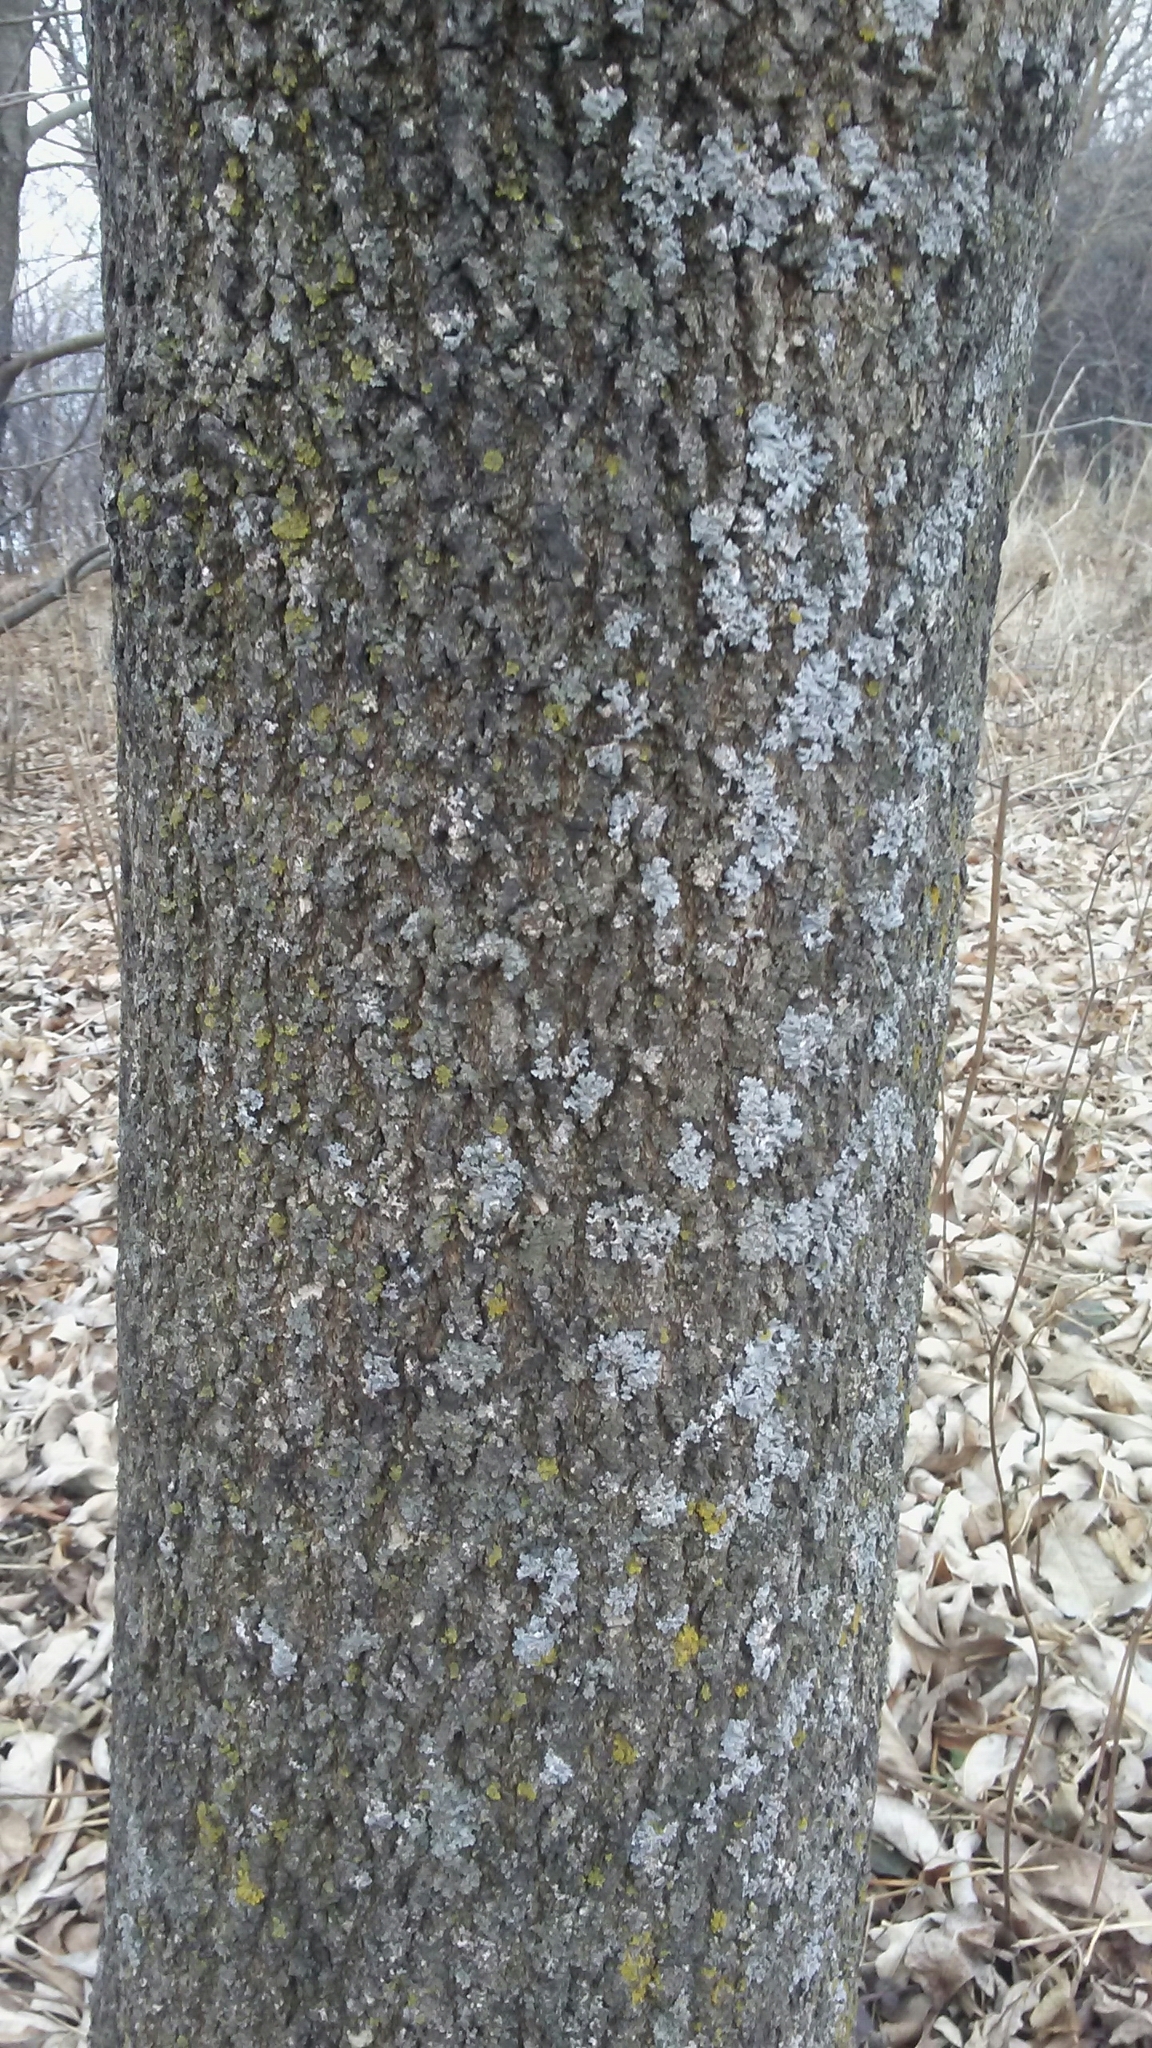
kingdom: Plantae
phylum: Tracheophyta
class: Magnoliopsida
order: Lamiales
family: Oleaceae
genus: Fraxinus
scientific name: Fraxinus americana
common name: White ash
